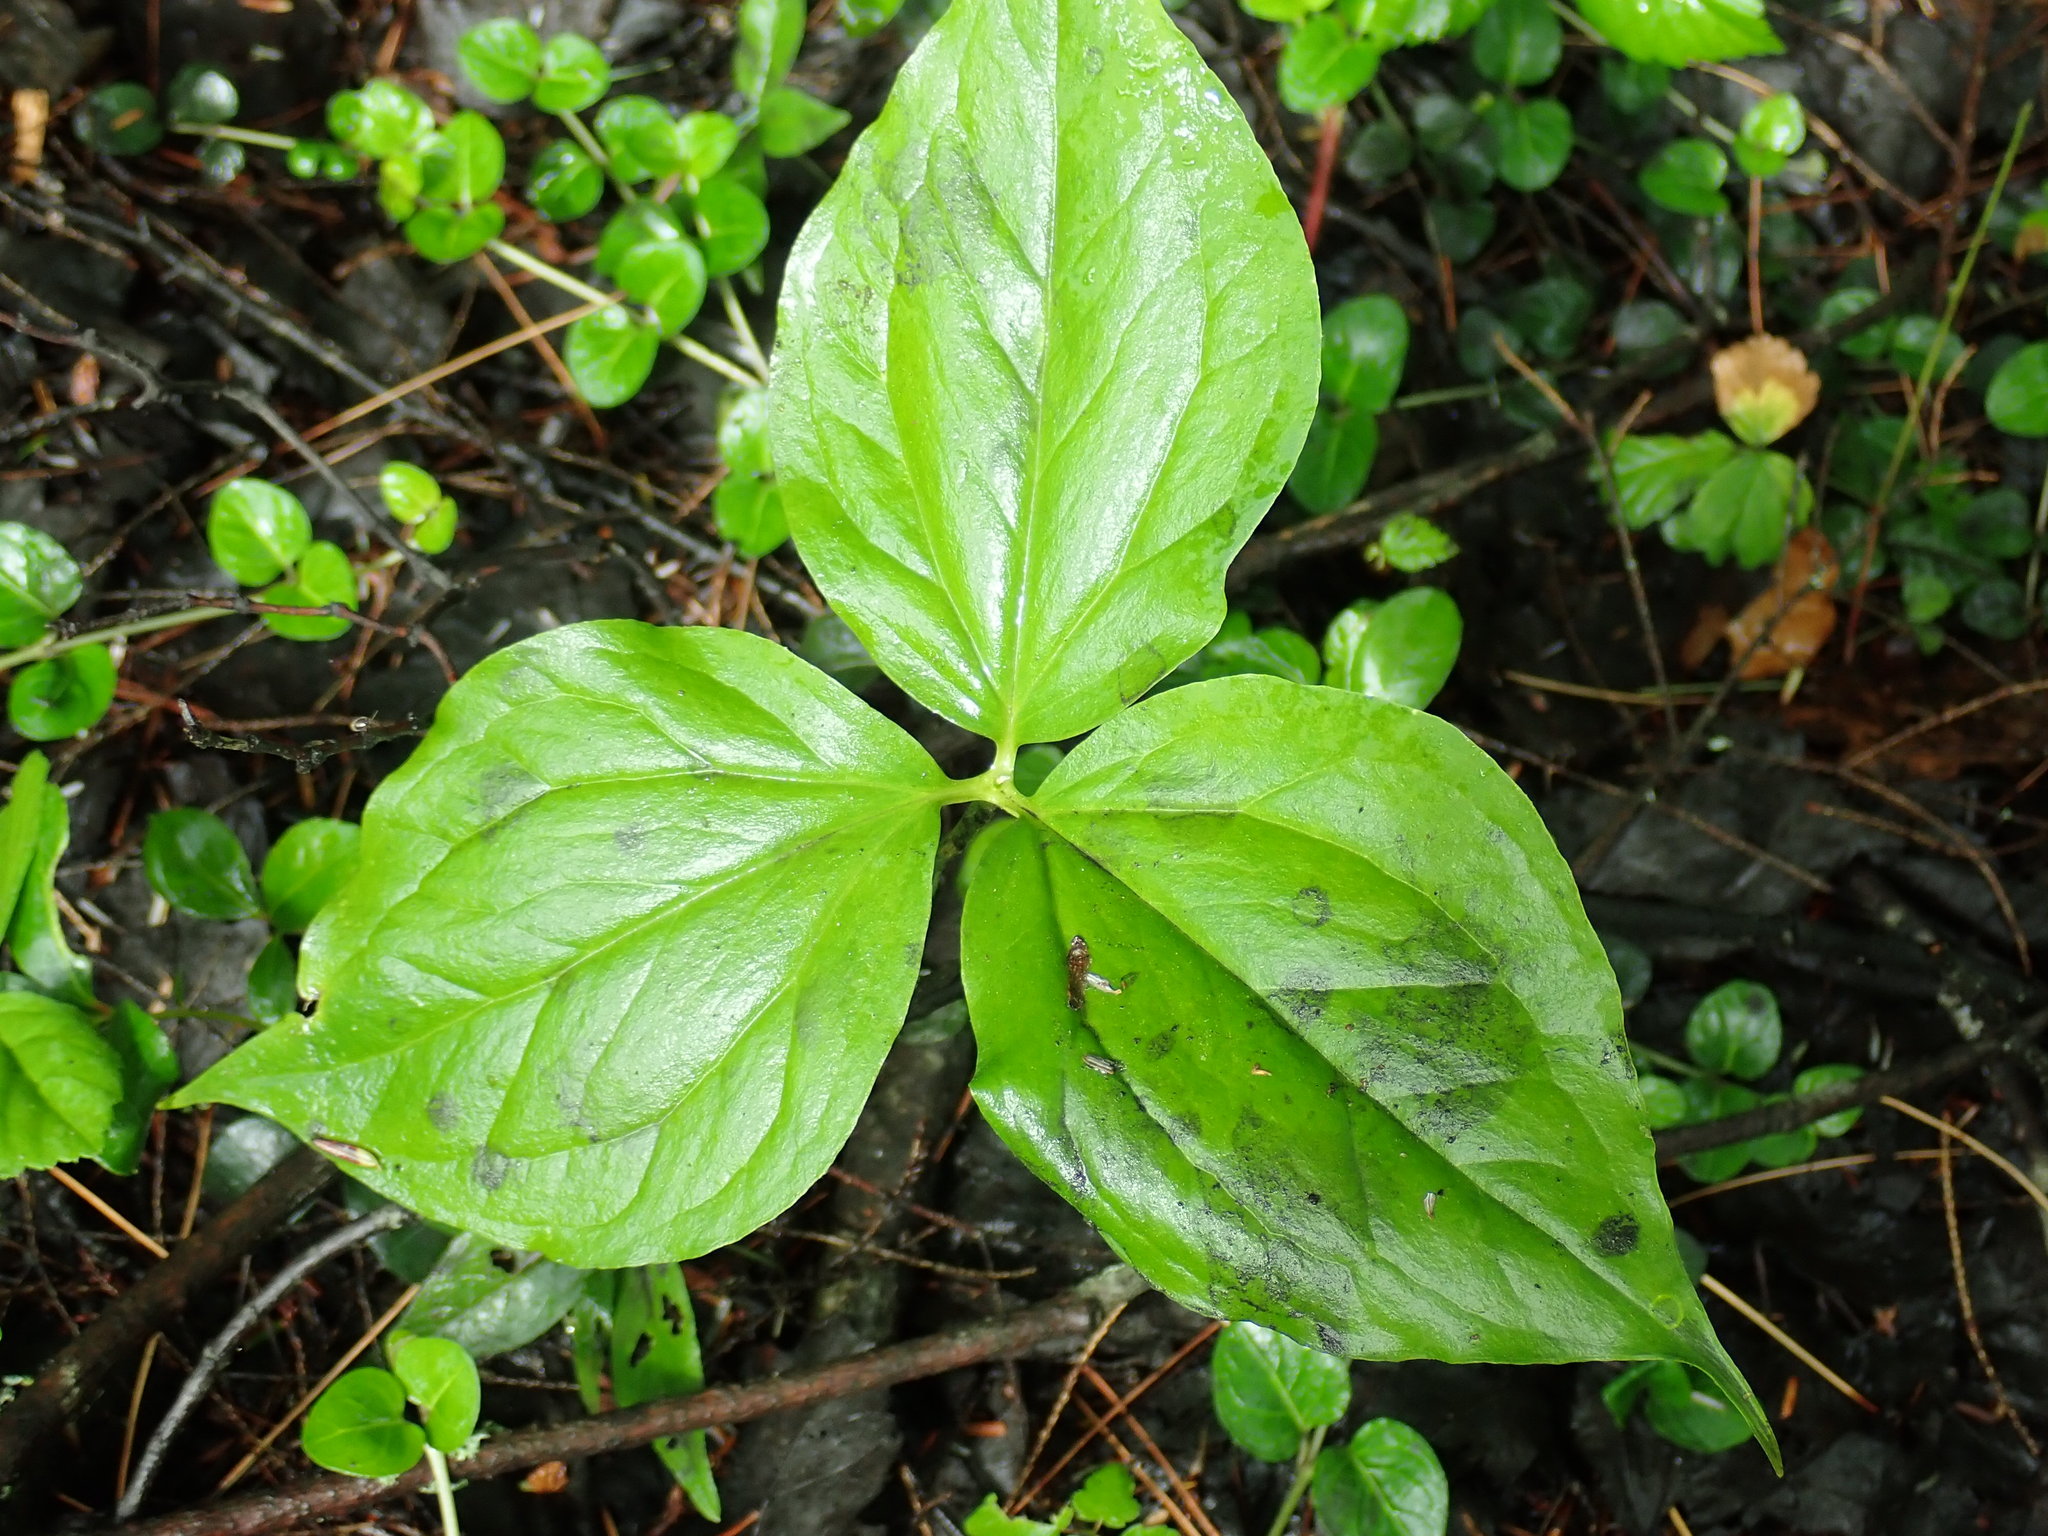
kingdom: Plantae
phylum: Tracheophyta
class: Liliopsida
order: Liliales
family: Melanthiaceae
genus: Trillium
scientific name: Trillium undulatum
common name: Paint trillium
